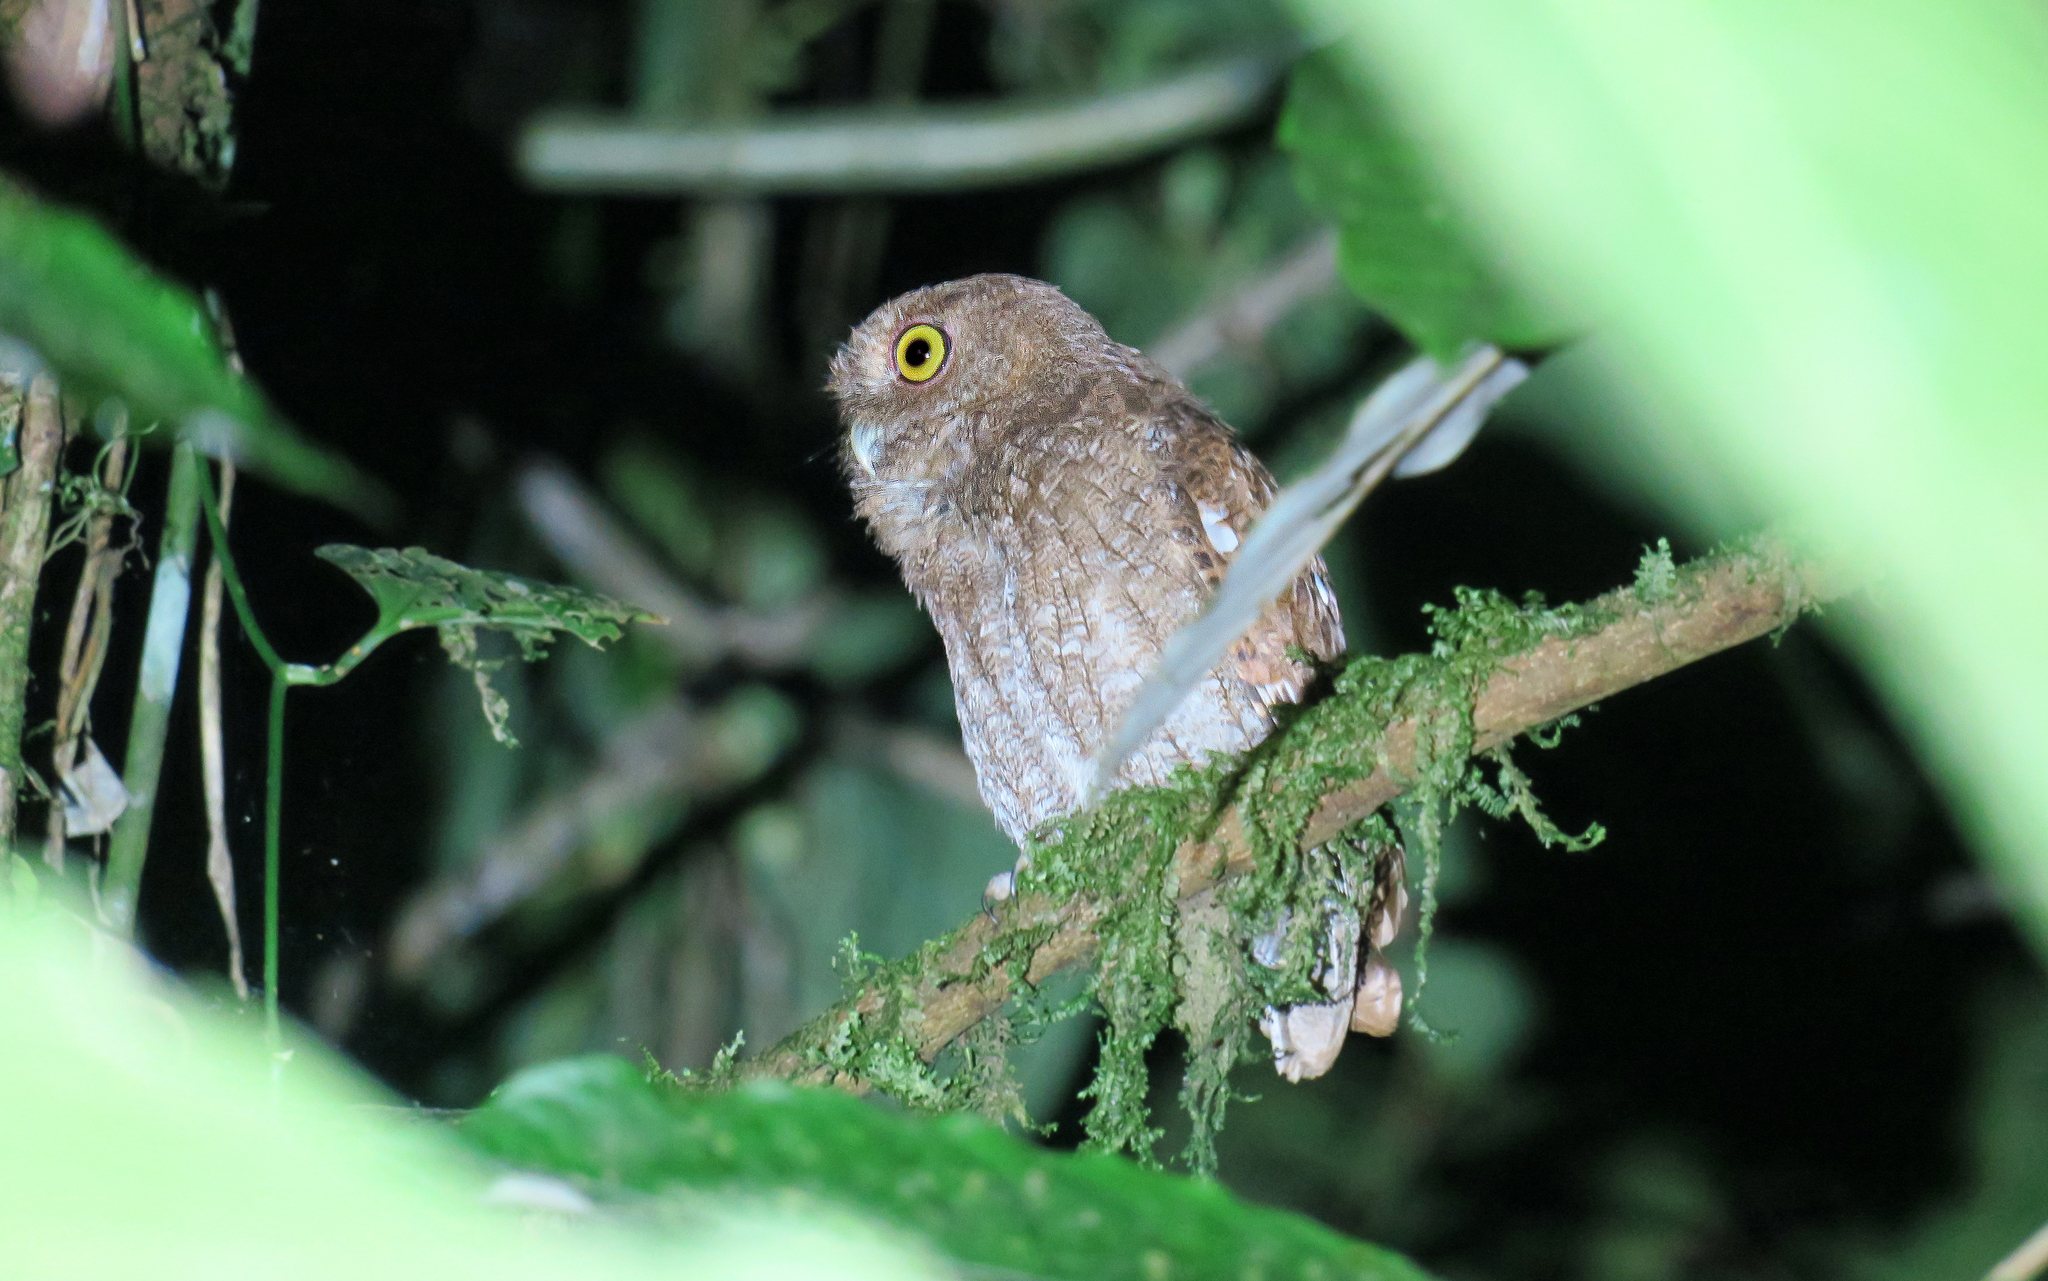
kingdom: Animalia
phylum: Chordata
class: Aves
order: Strigiformes
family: Strigidae
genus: Megascops
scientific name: Megascops centralis
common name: Choco screech owl
